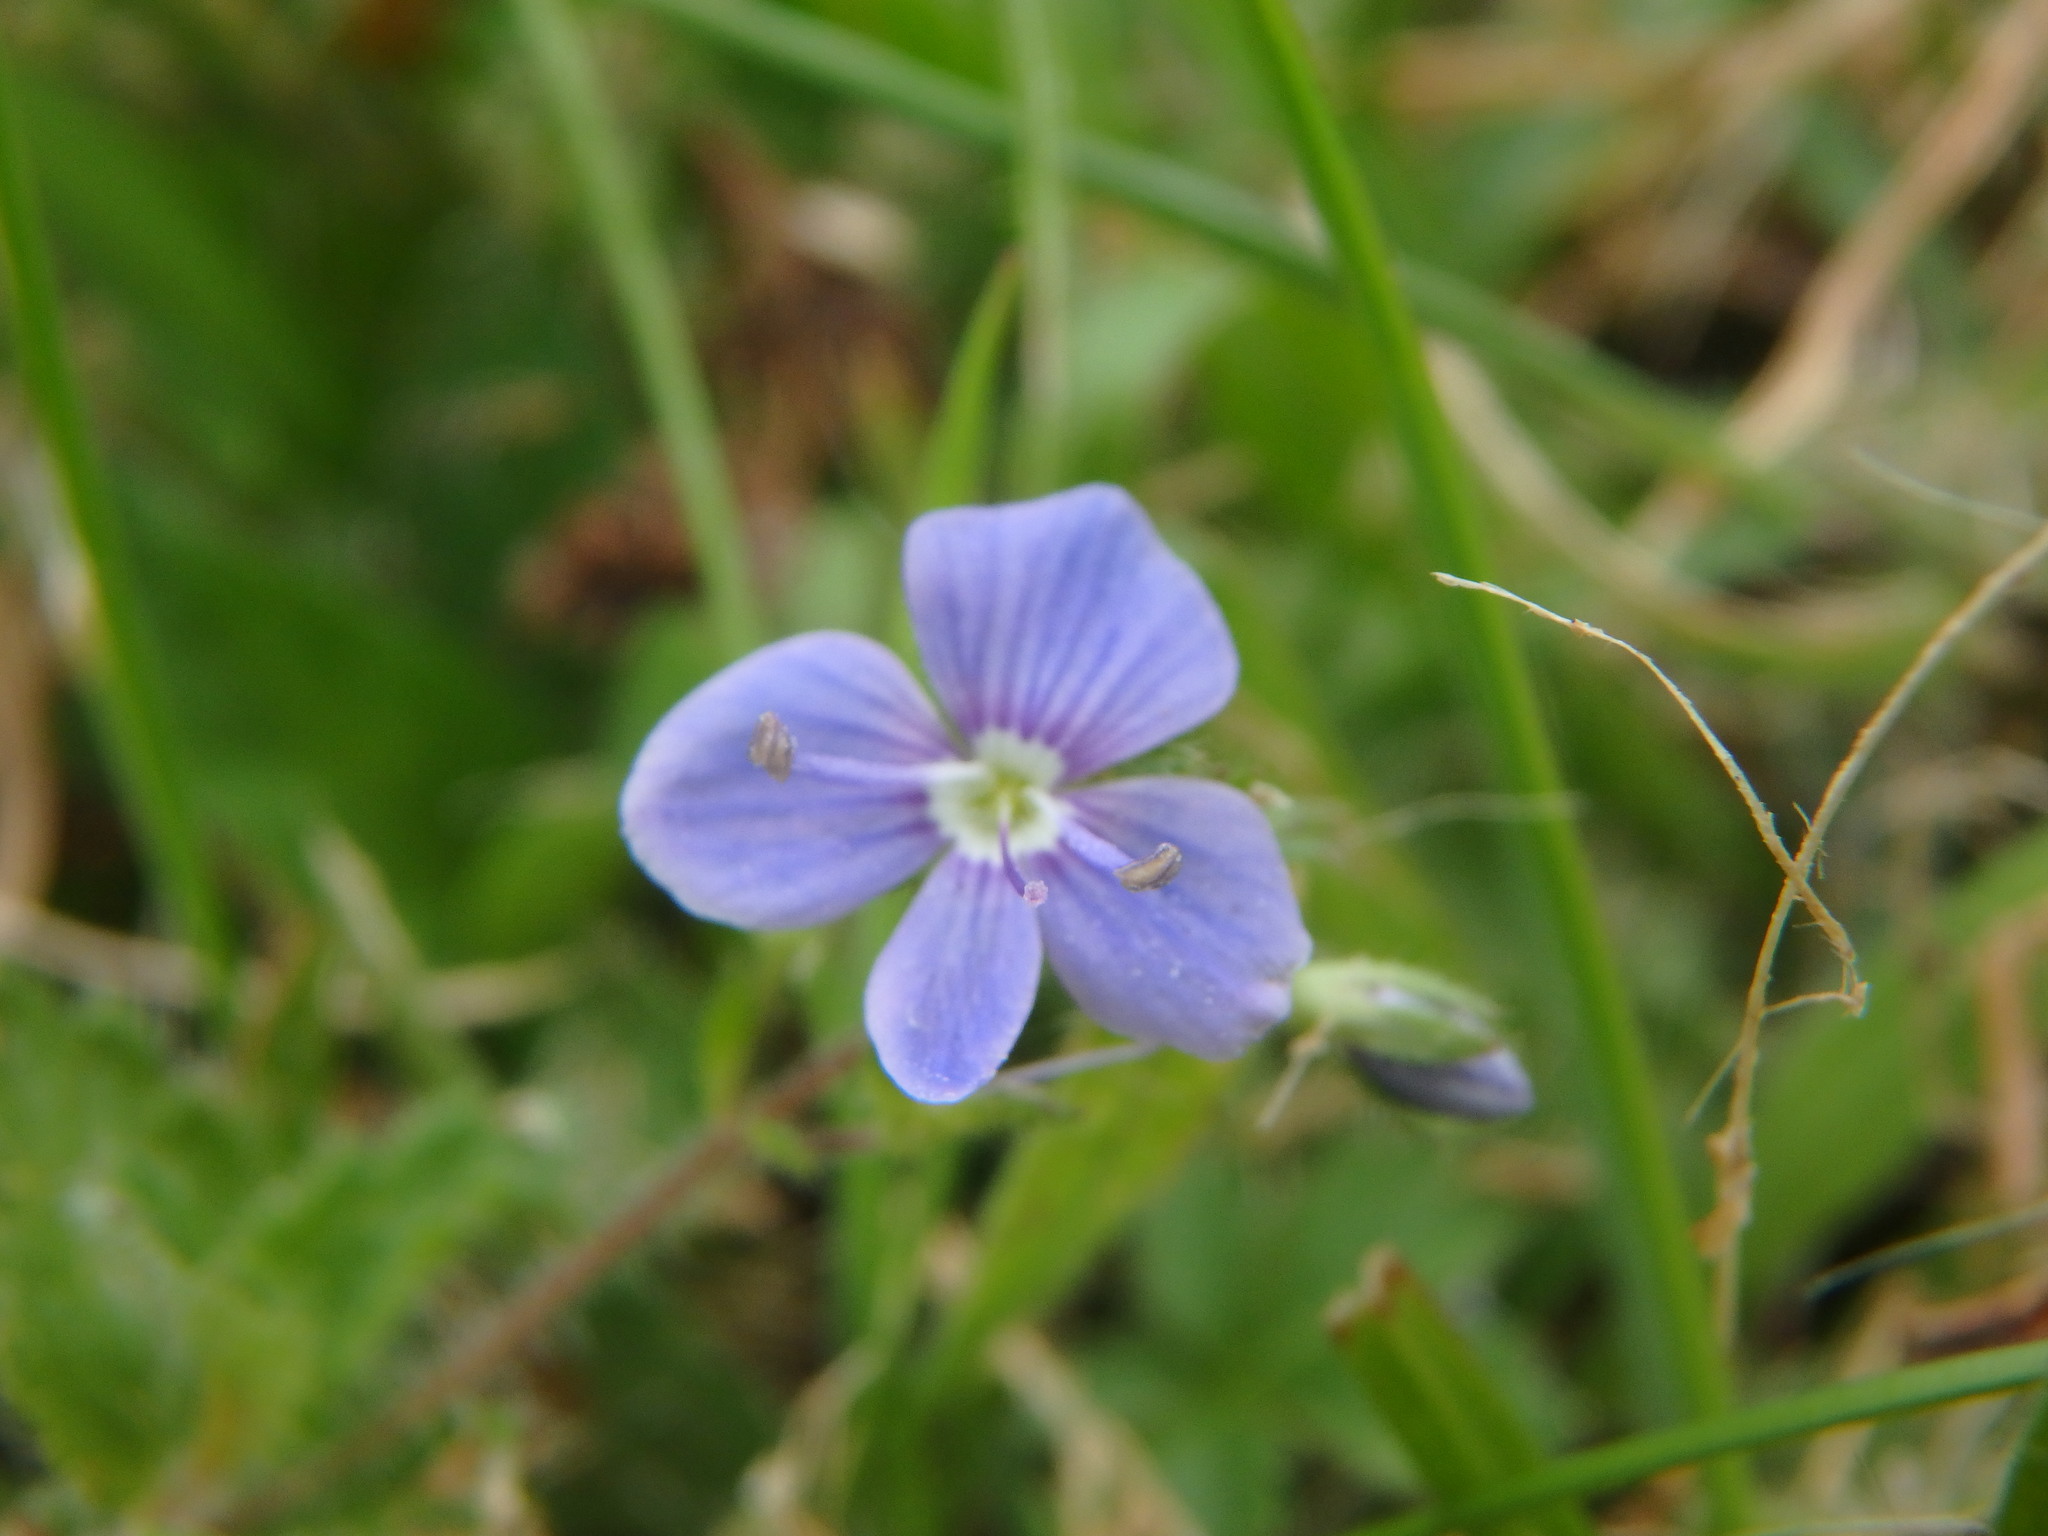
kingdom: Plantae
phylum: Tracheophyta
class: Magnoliopsida
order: Lamiales
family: Plantaginaceae
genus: Veronica
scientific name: Veronica chamaedrys
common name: Germander speedwell
